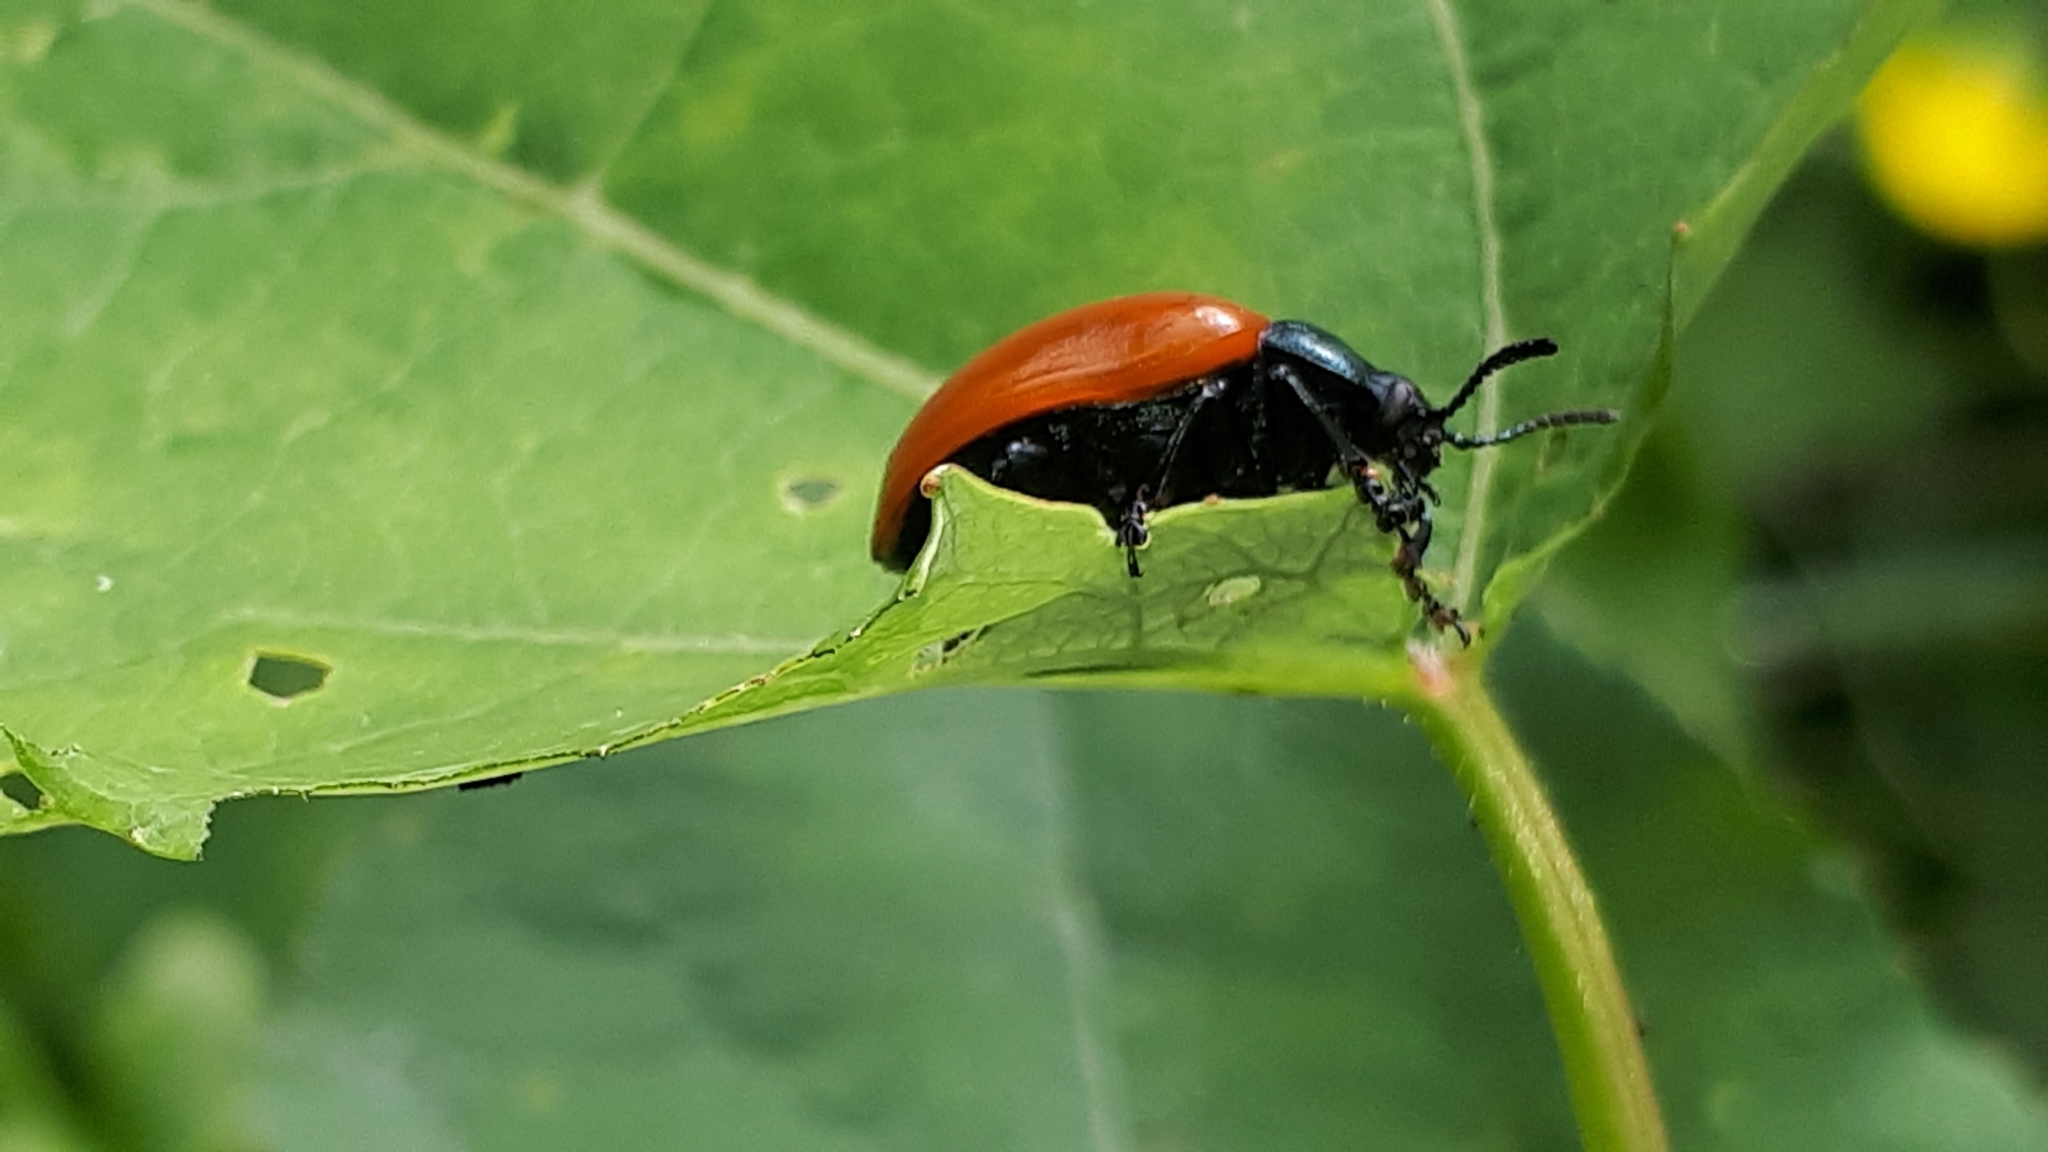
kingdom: Animalia
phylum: Arthropoda
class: Insecta
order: Coleoptera
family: Chrysomelidae
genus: Chrysomela
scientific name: Chrysomela populi
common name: Red poplar leaf beetle
